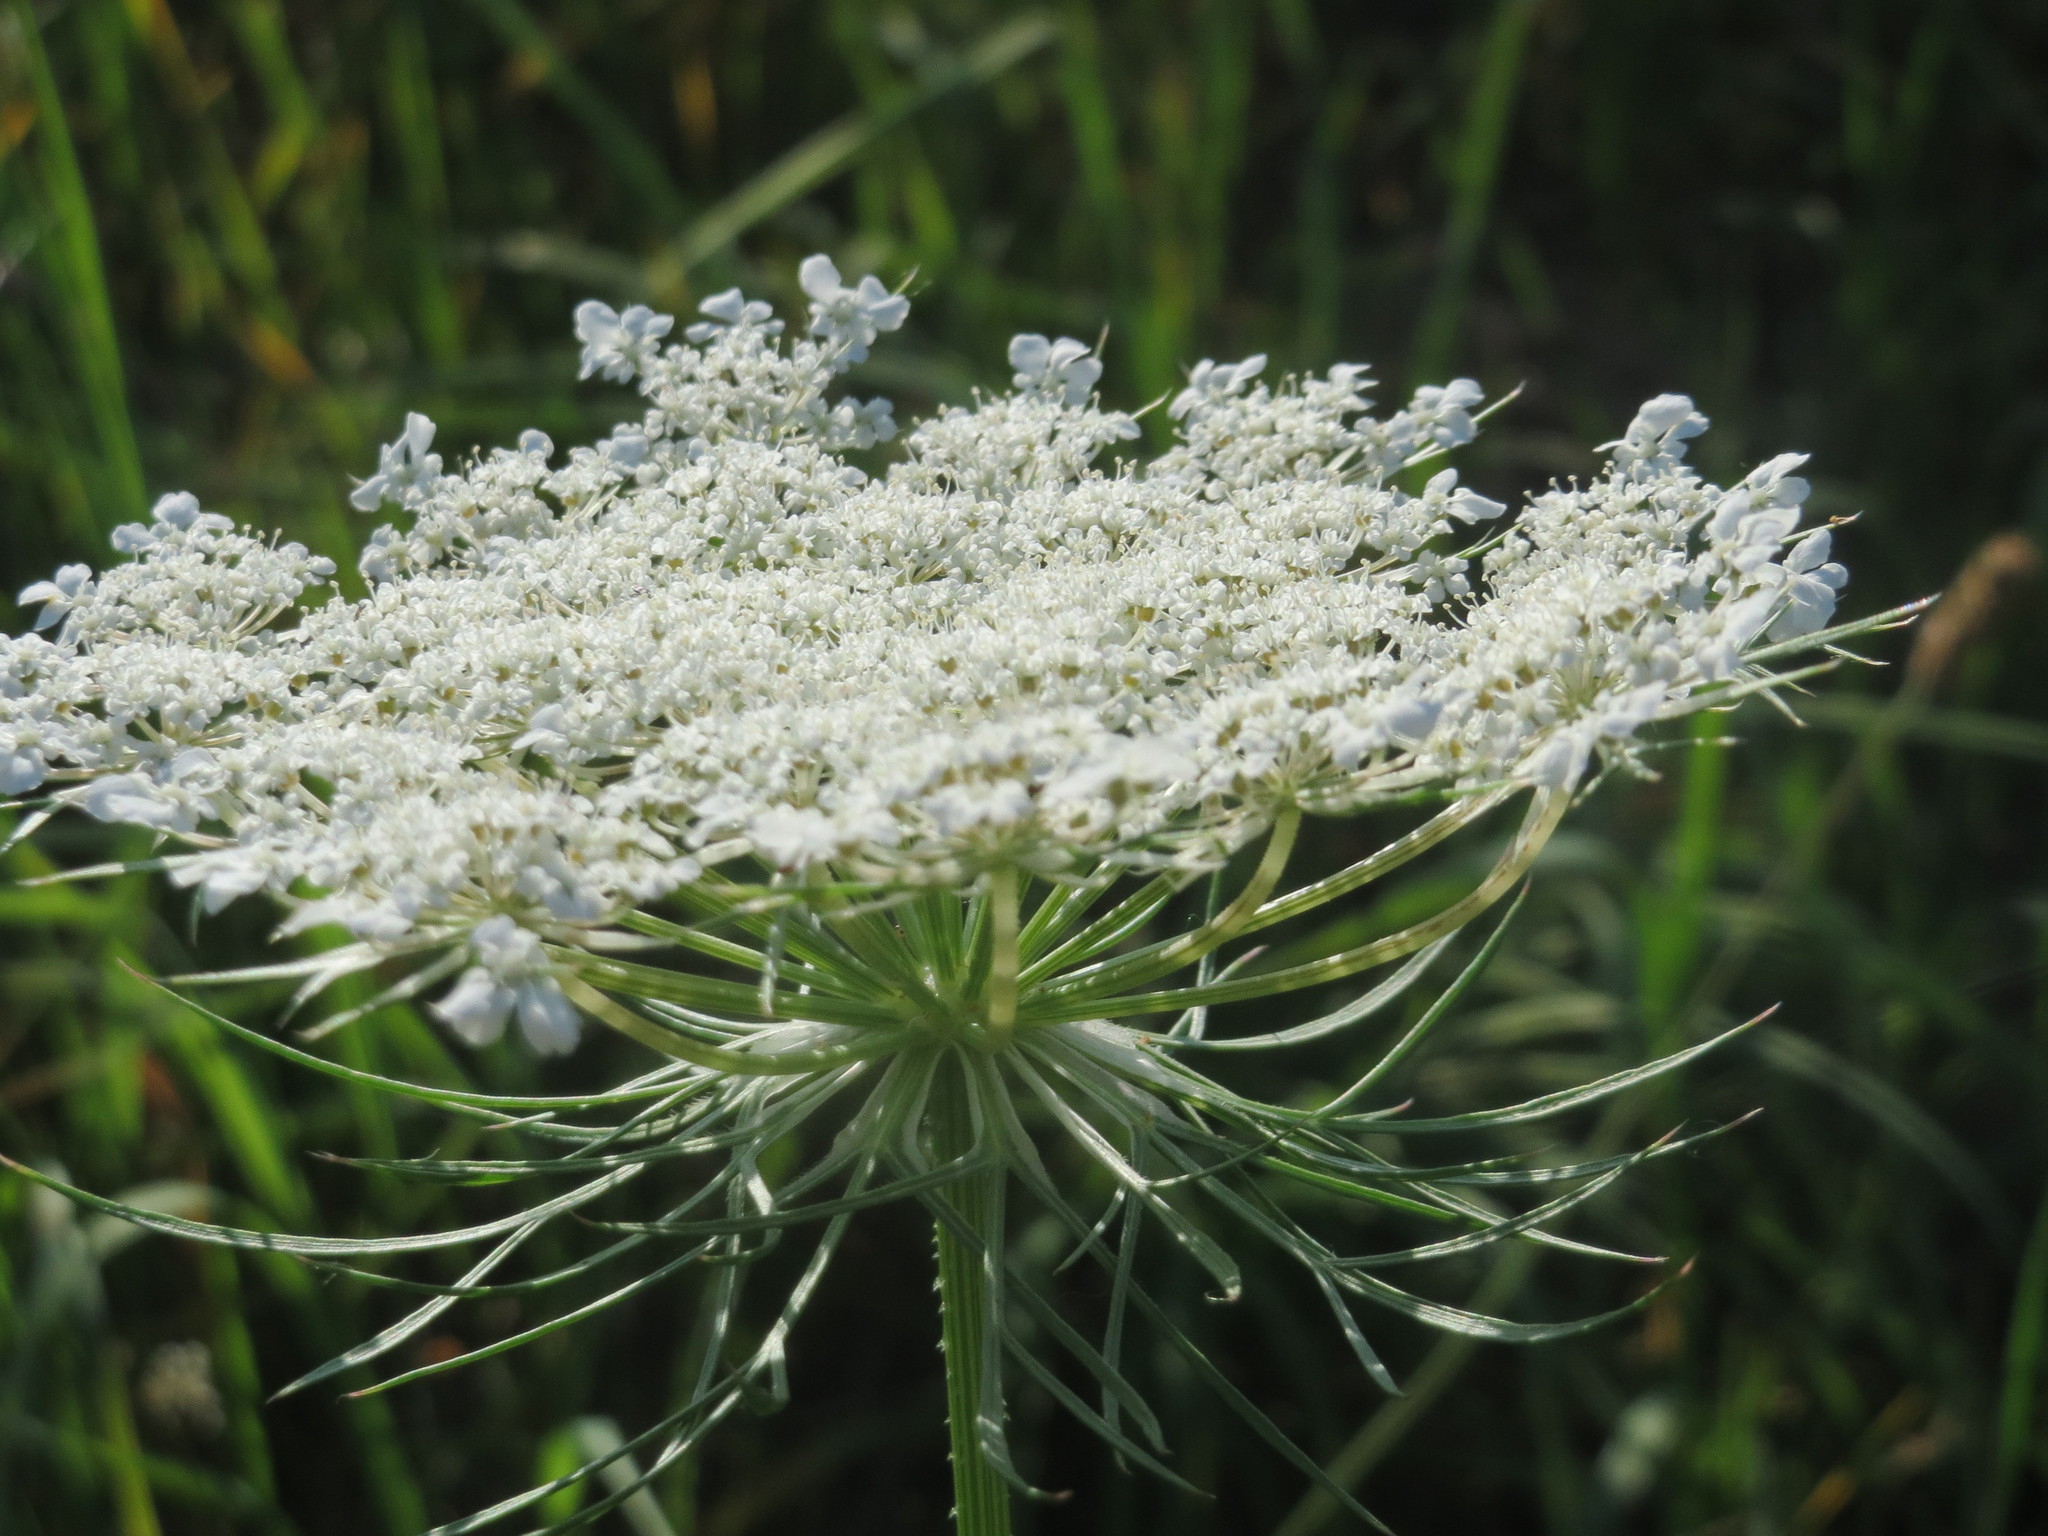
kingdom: Plantae
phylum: Tracheophyta
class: Magnoliopsida
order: Apiales
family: Apiaceae
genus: Daucus
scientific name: Daucus carota
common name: Wild carrot
